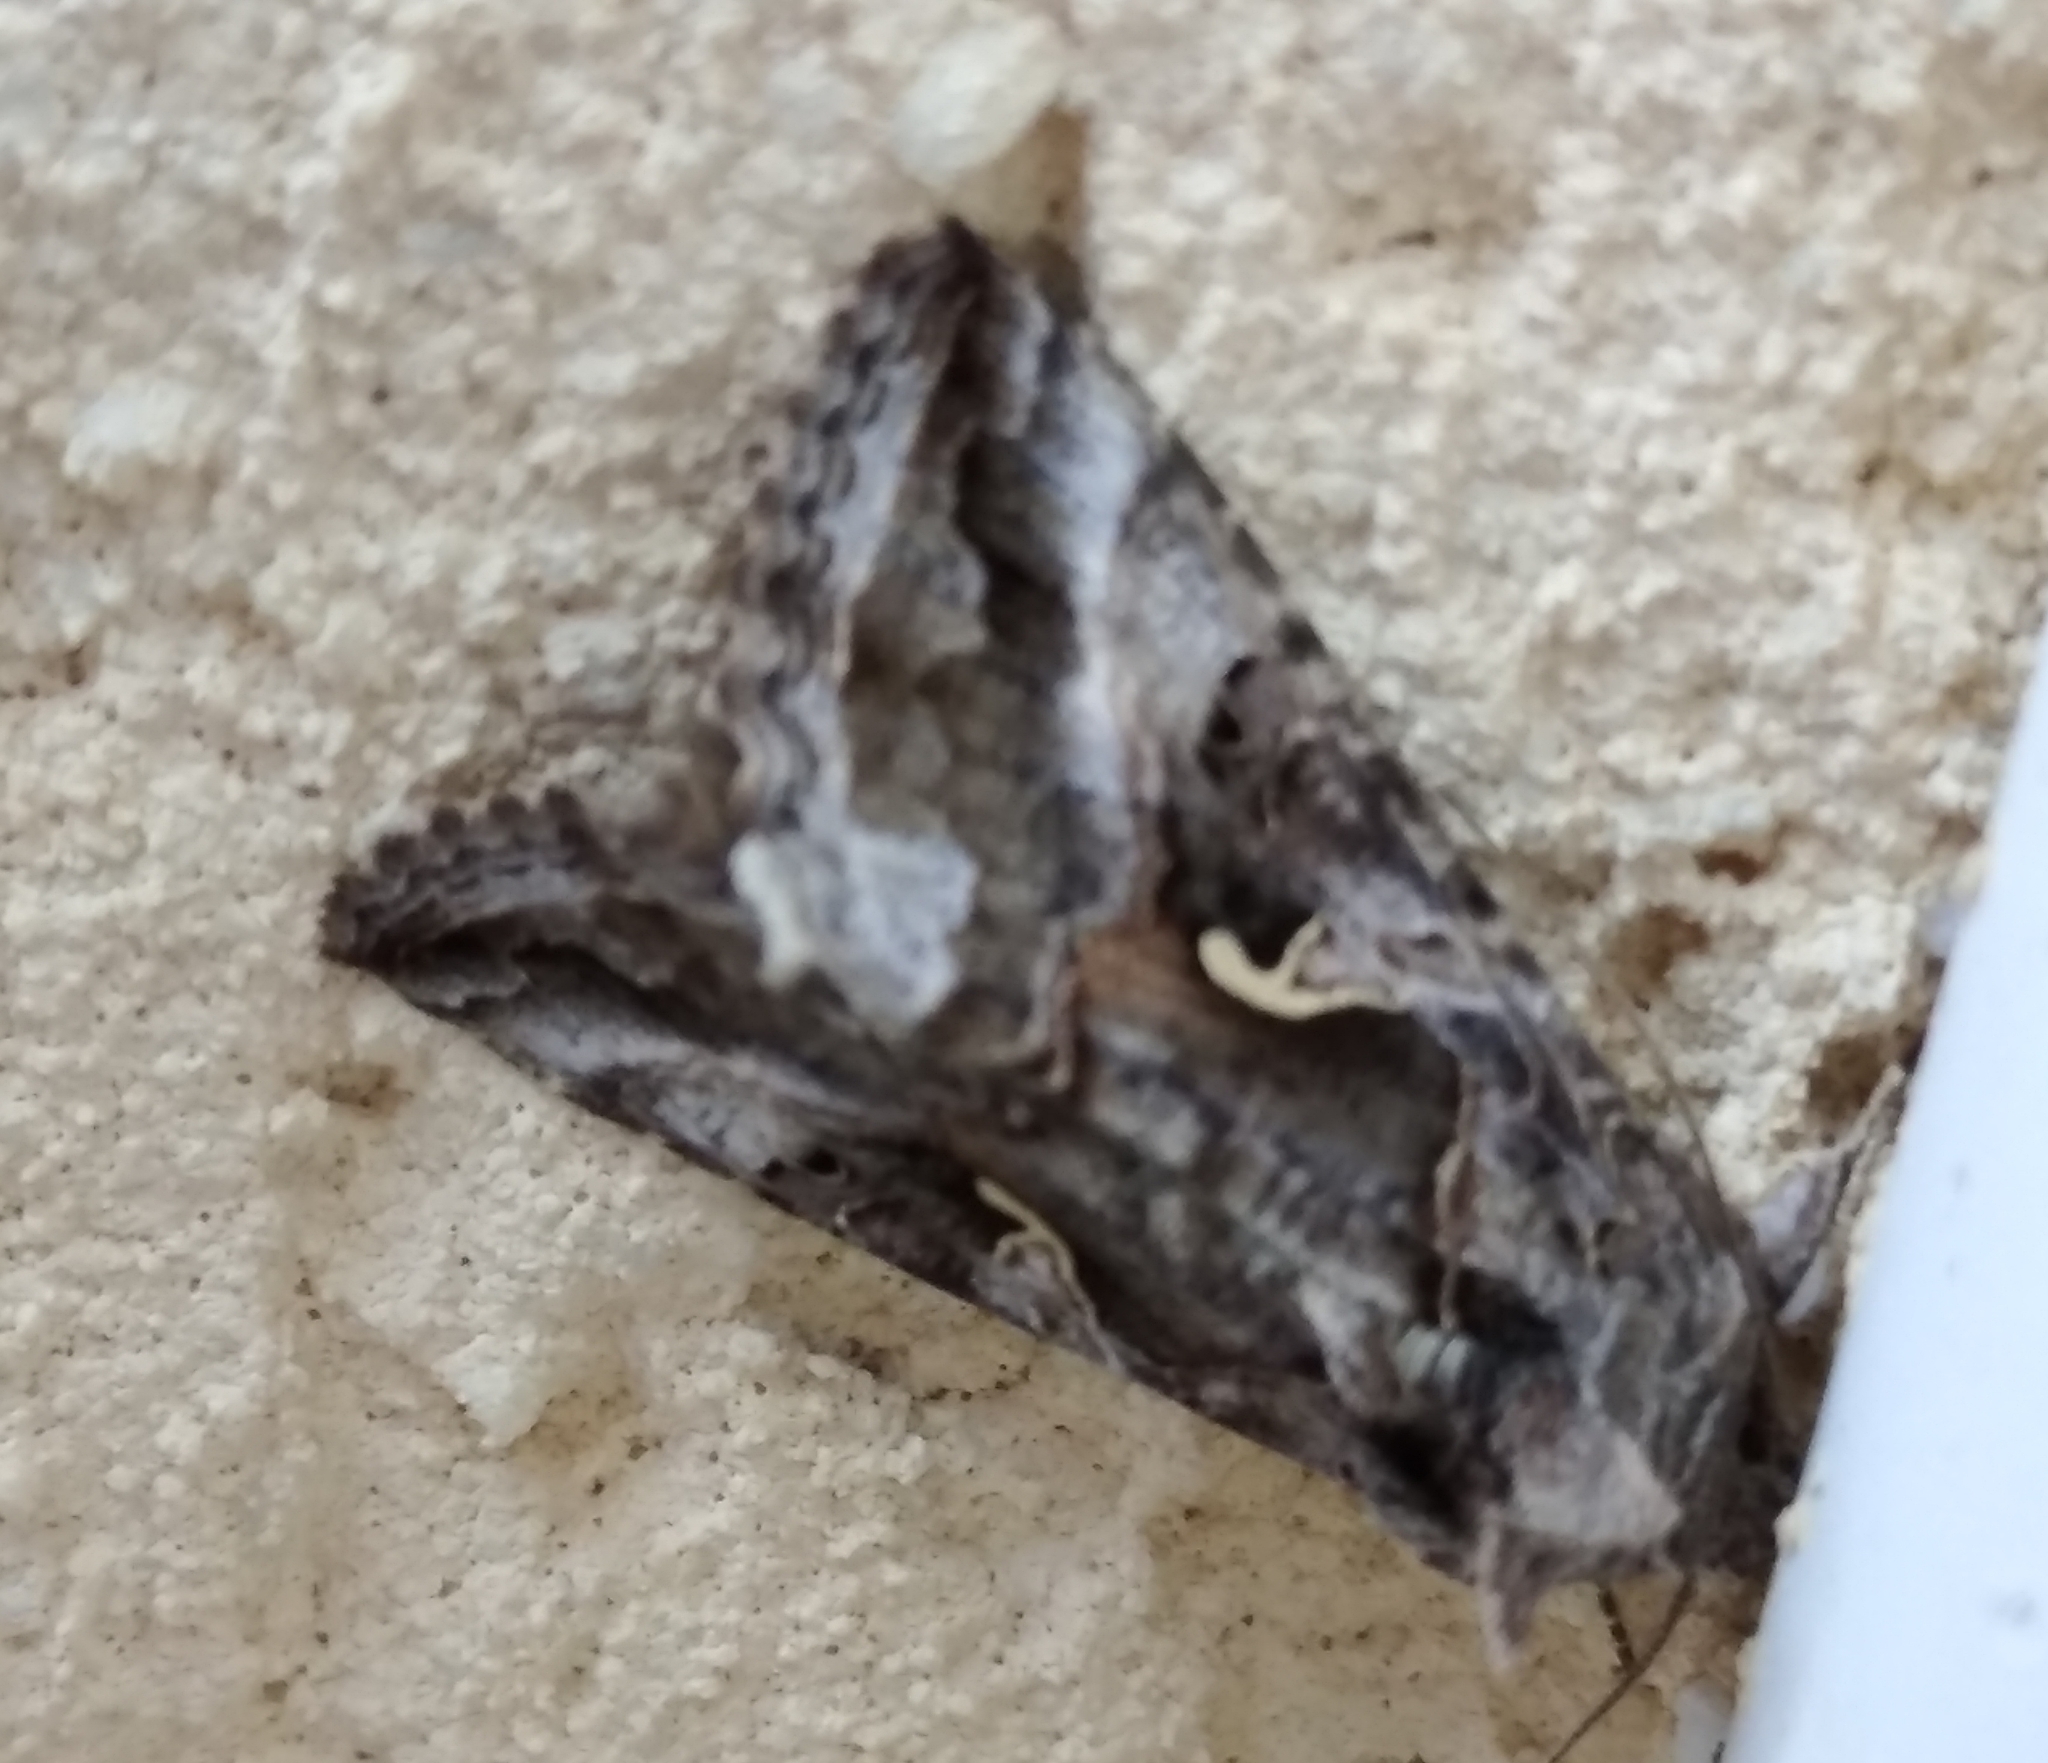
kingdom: Animalia
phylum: Arthropoda
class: Insecta
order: Lepidoptera
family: Noctuidae
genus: Autographa
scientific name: Autographa gamma
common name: Silver y
